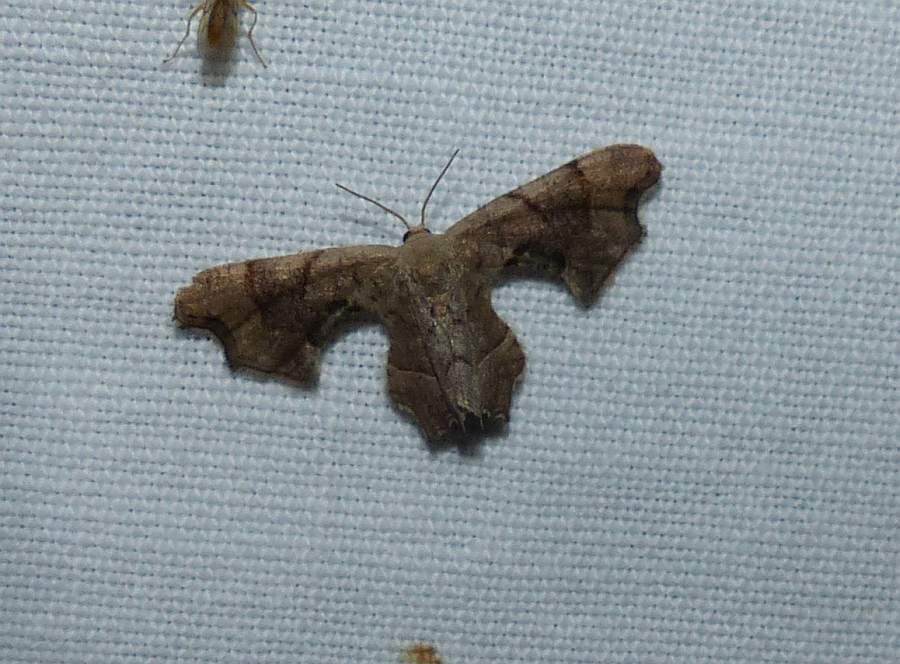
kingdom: Animalia
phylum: Arthropoda
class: Insecta
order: Lepidoptera
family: Uraniidae
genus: Epiplema
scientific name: Epiplema Calledapteryx dryopterata
